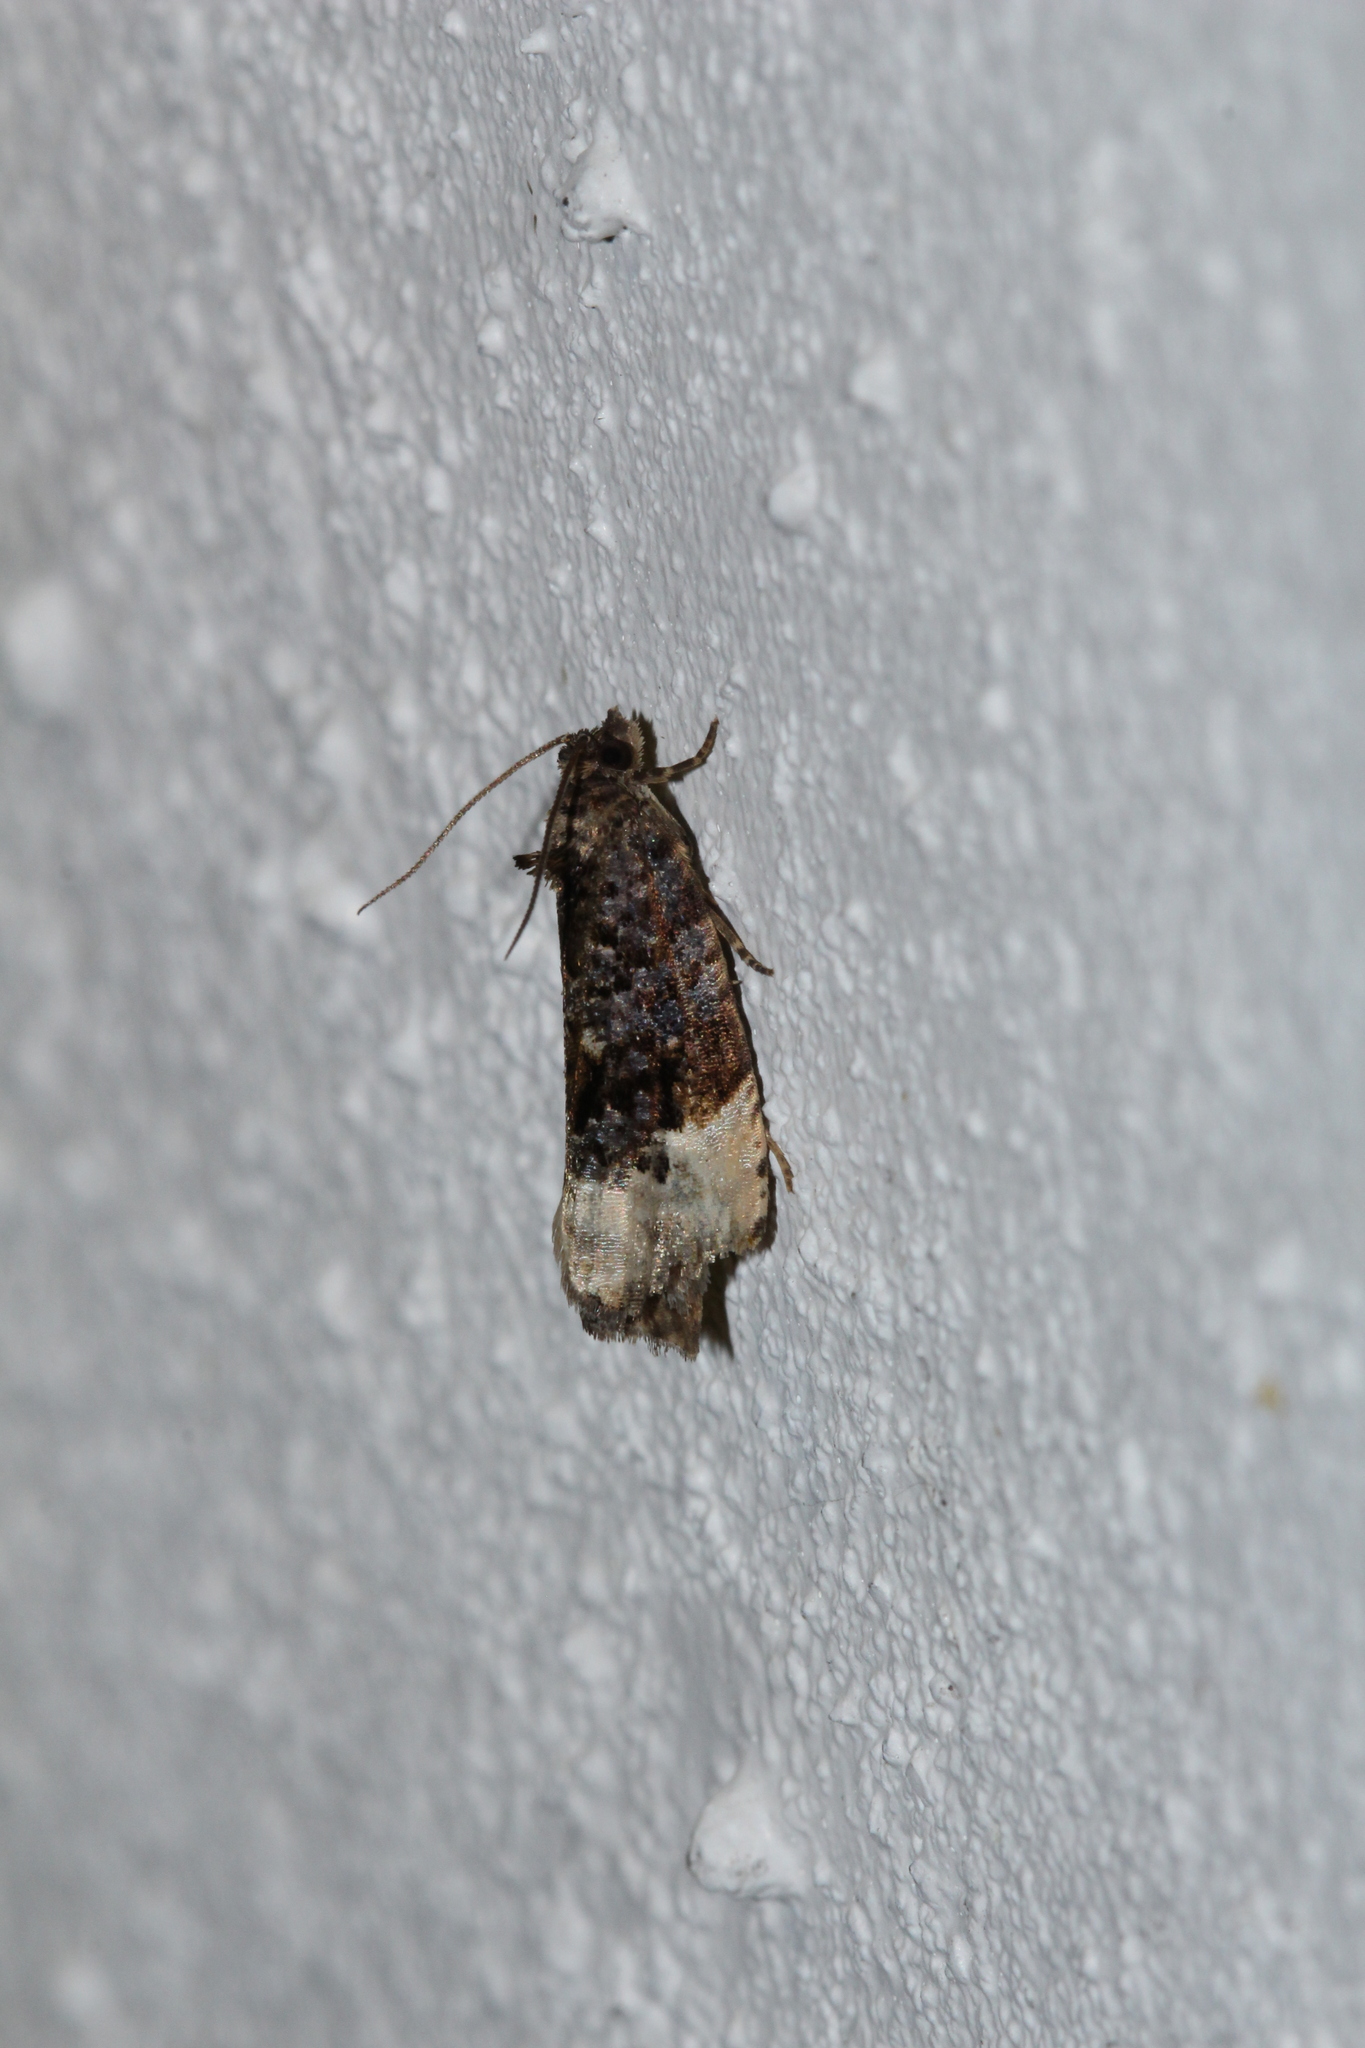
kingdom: Animalia
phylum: Arthropoda
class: Insecta
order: Lepidoptera
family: Tortricidae
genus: Hedya
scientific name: Hedya pruniana
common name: Plum tortrix
